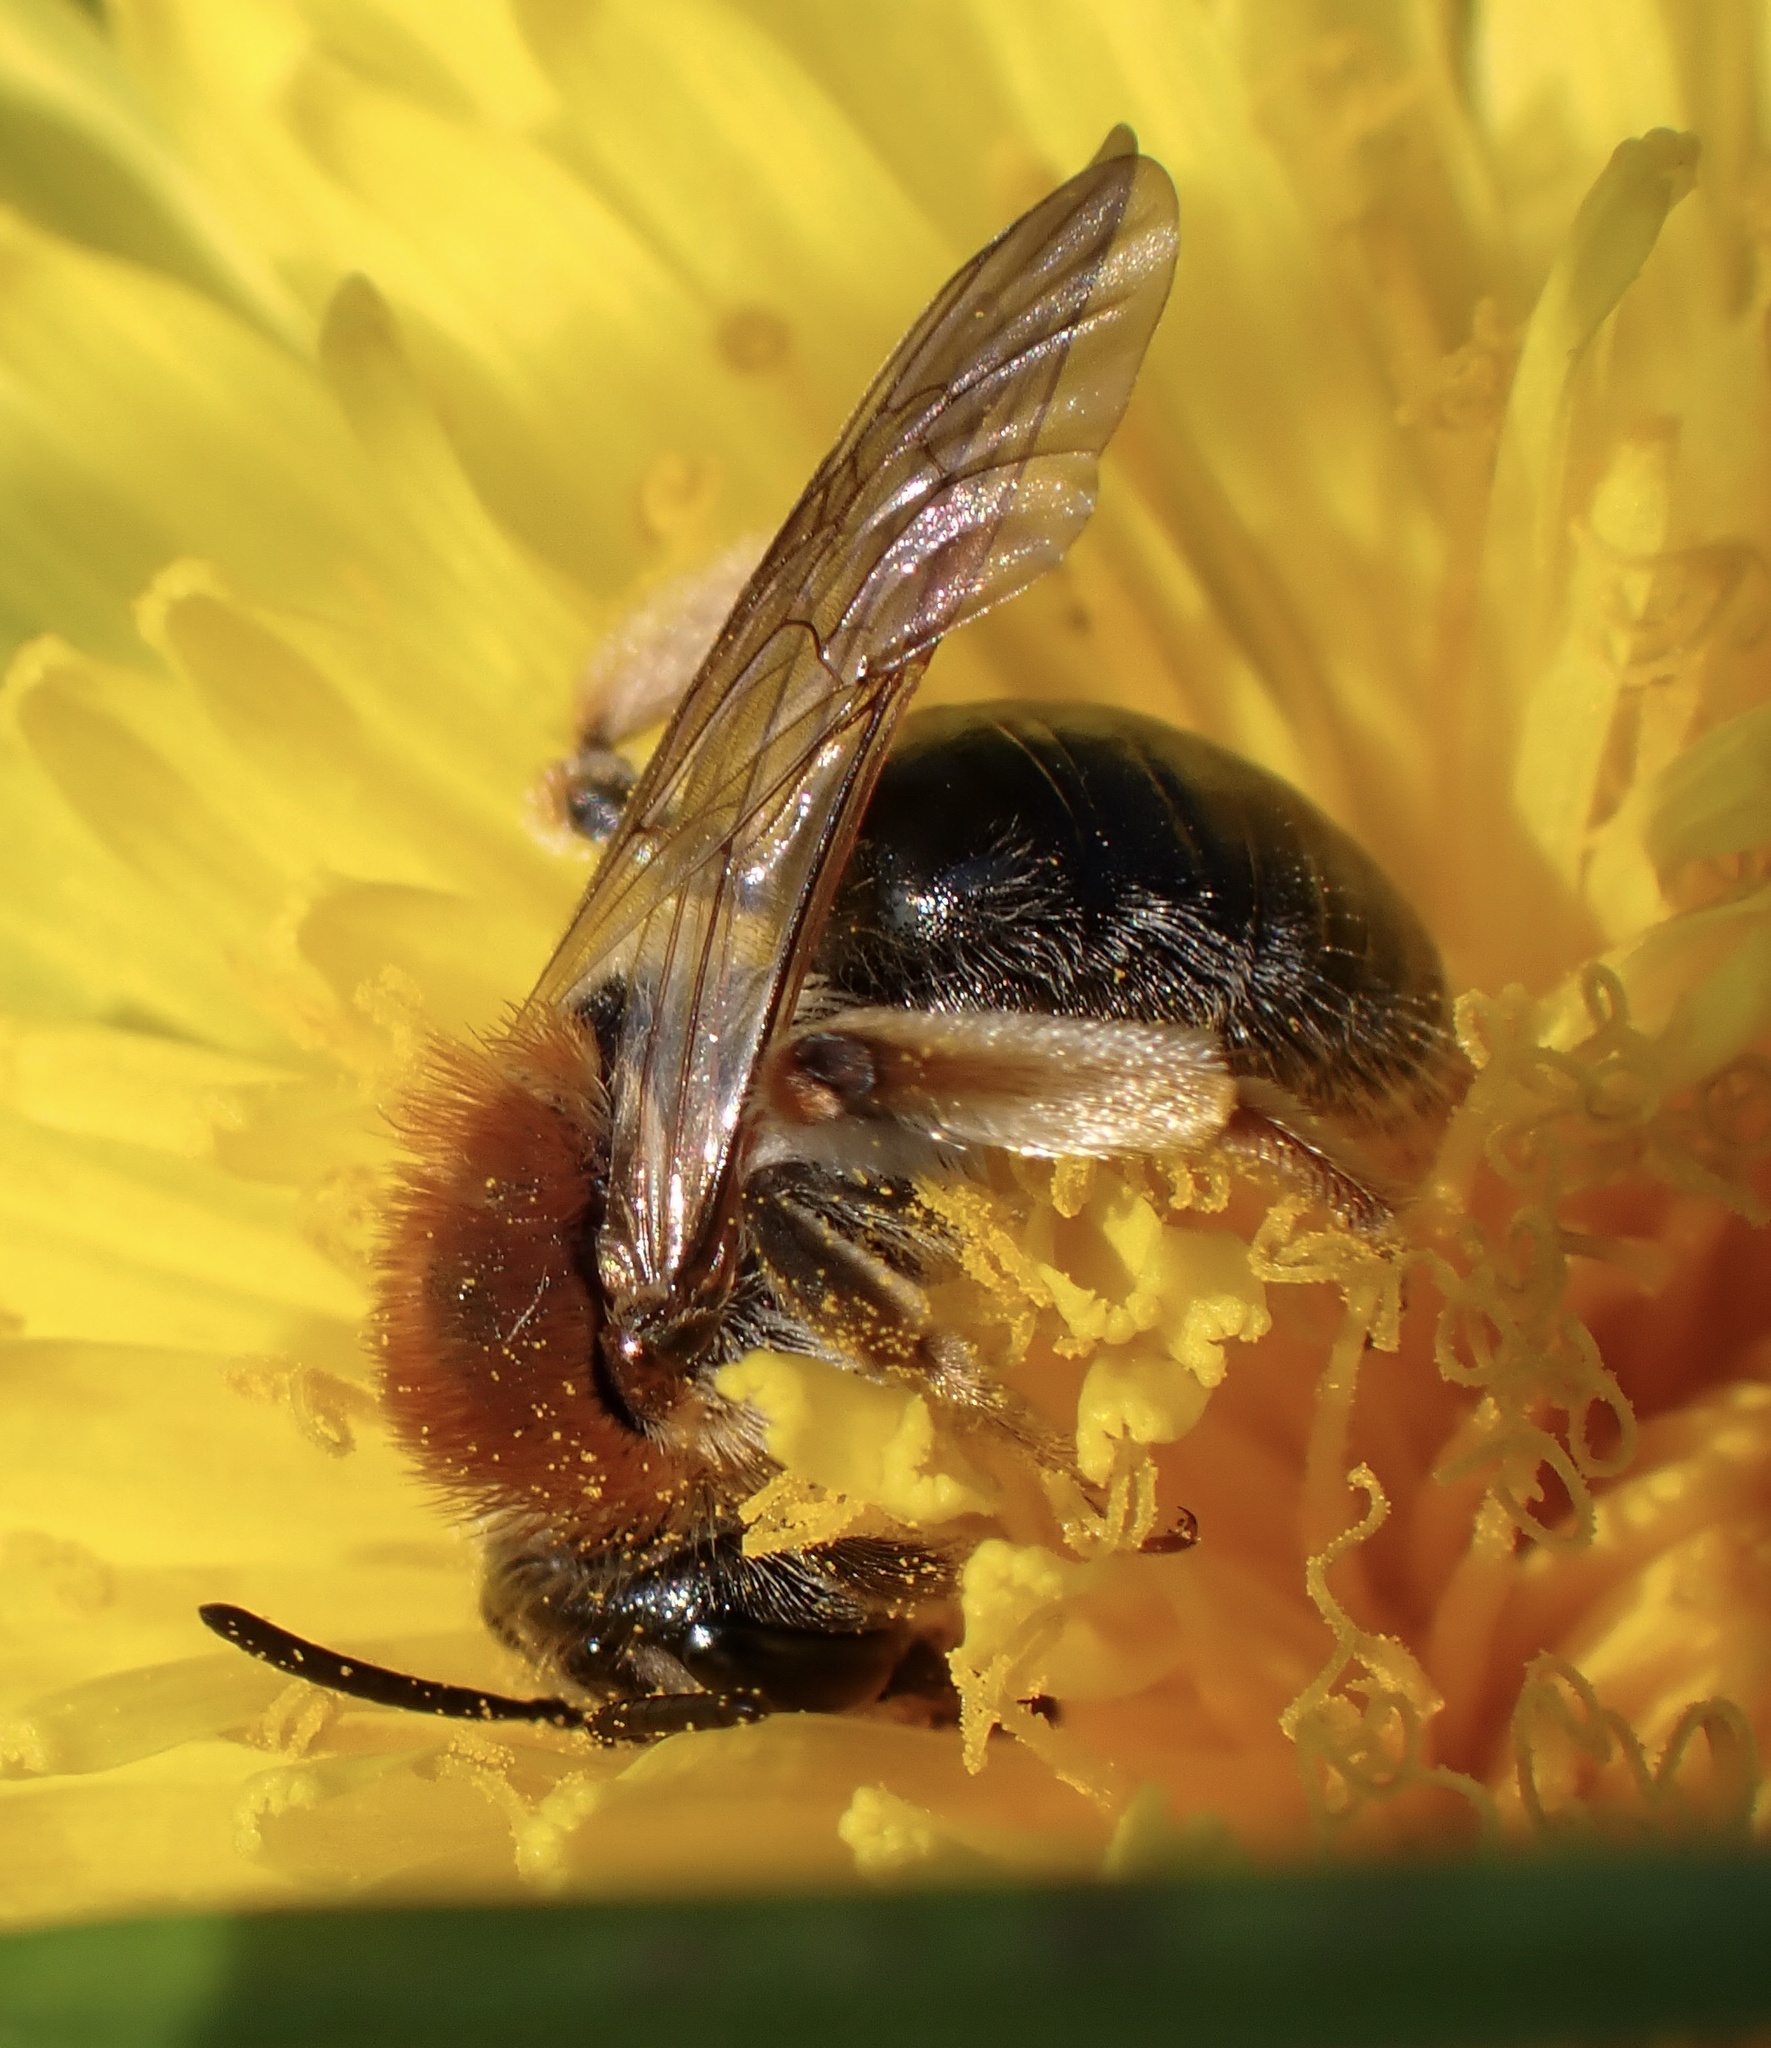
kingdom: Animalia
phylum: Arthropoda
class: Insecta
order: Hymenoptera
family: Andrenidae
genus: Andrena
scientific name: Andrena haemorrhoa
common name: Early mining bee
